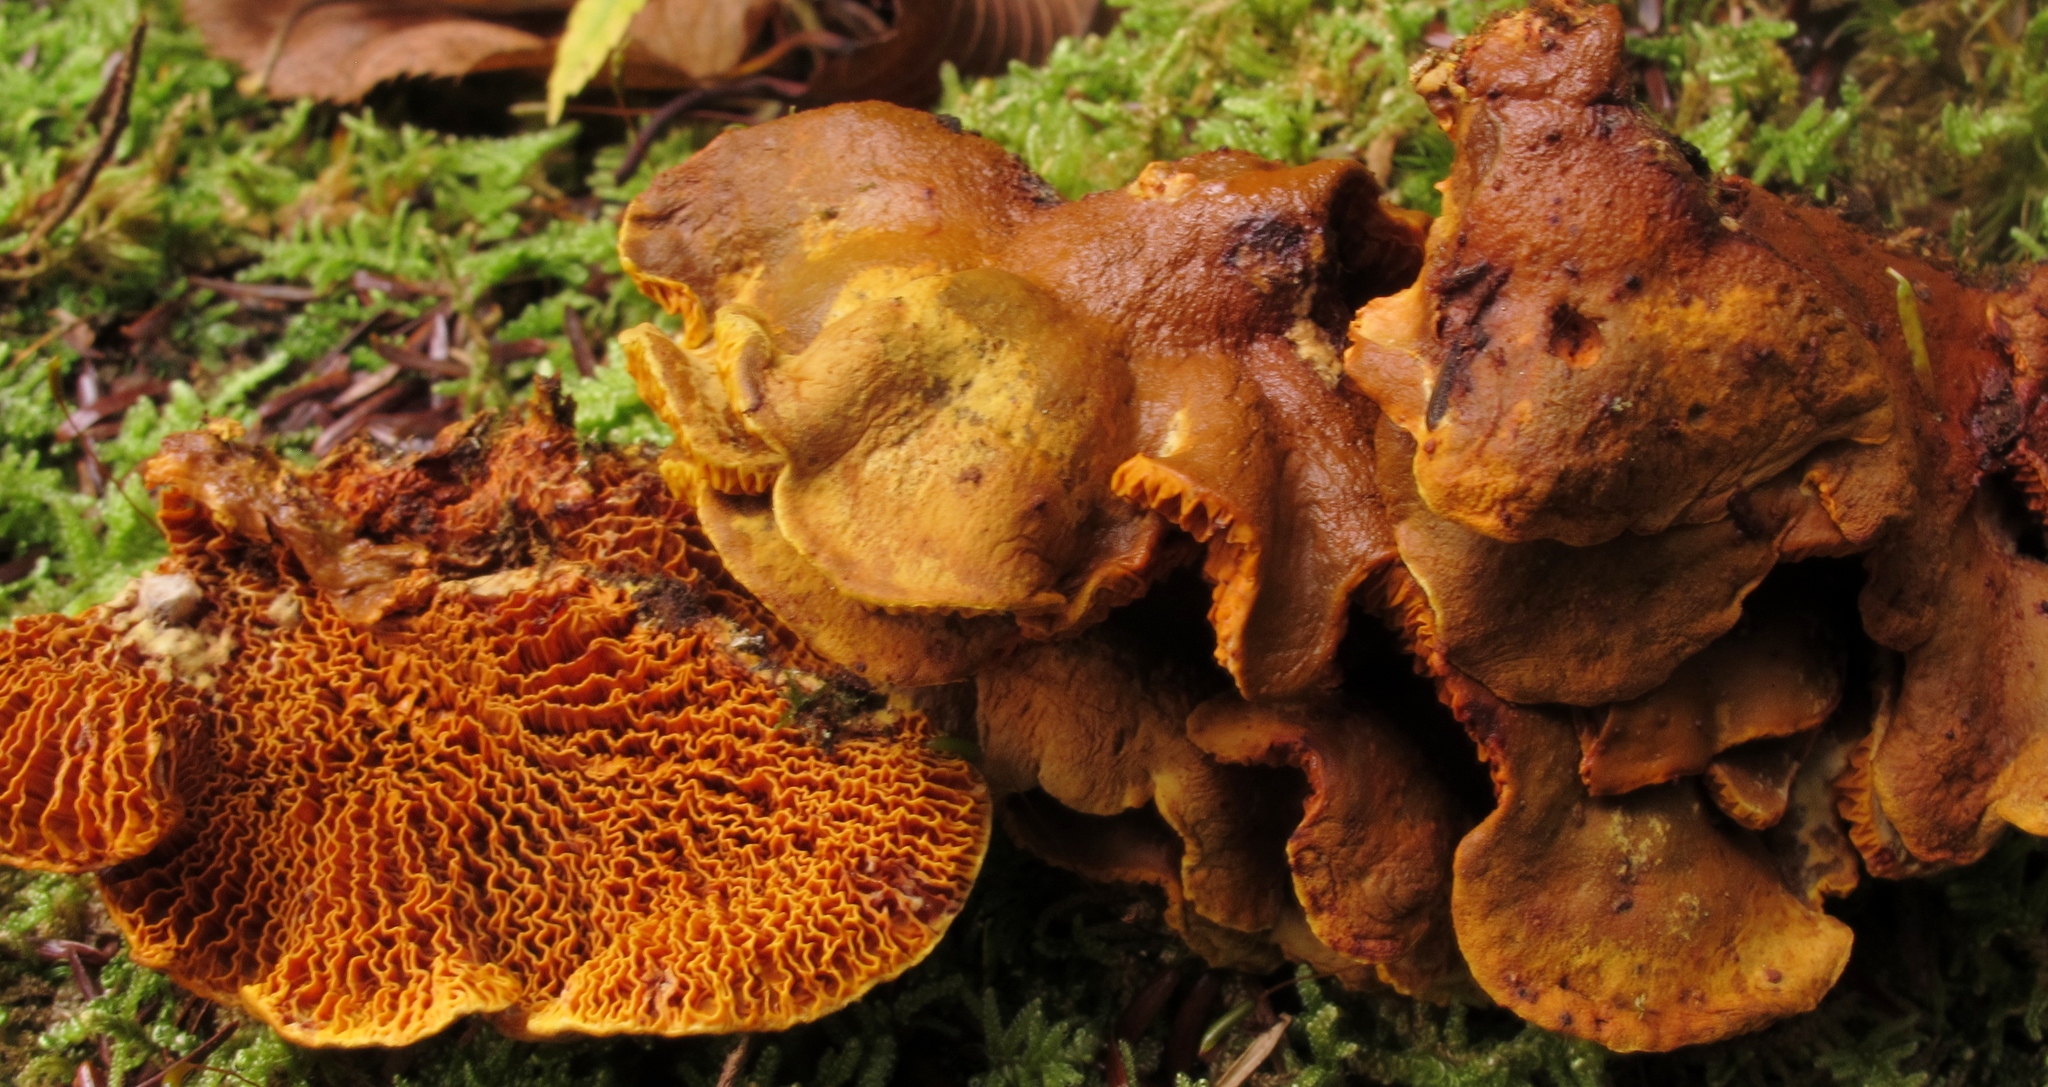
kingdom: Fungi
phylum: Basidiomycota
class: Agaricomycetes
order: Boletales
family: Paxillaceae
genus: Meiorganum
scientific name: Meiorganum curtisii
